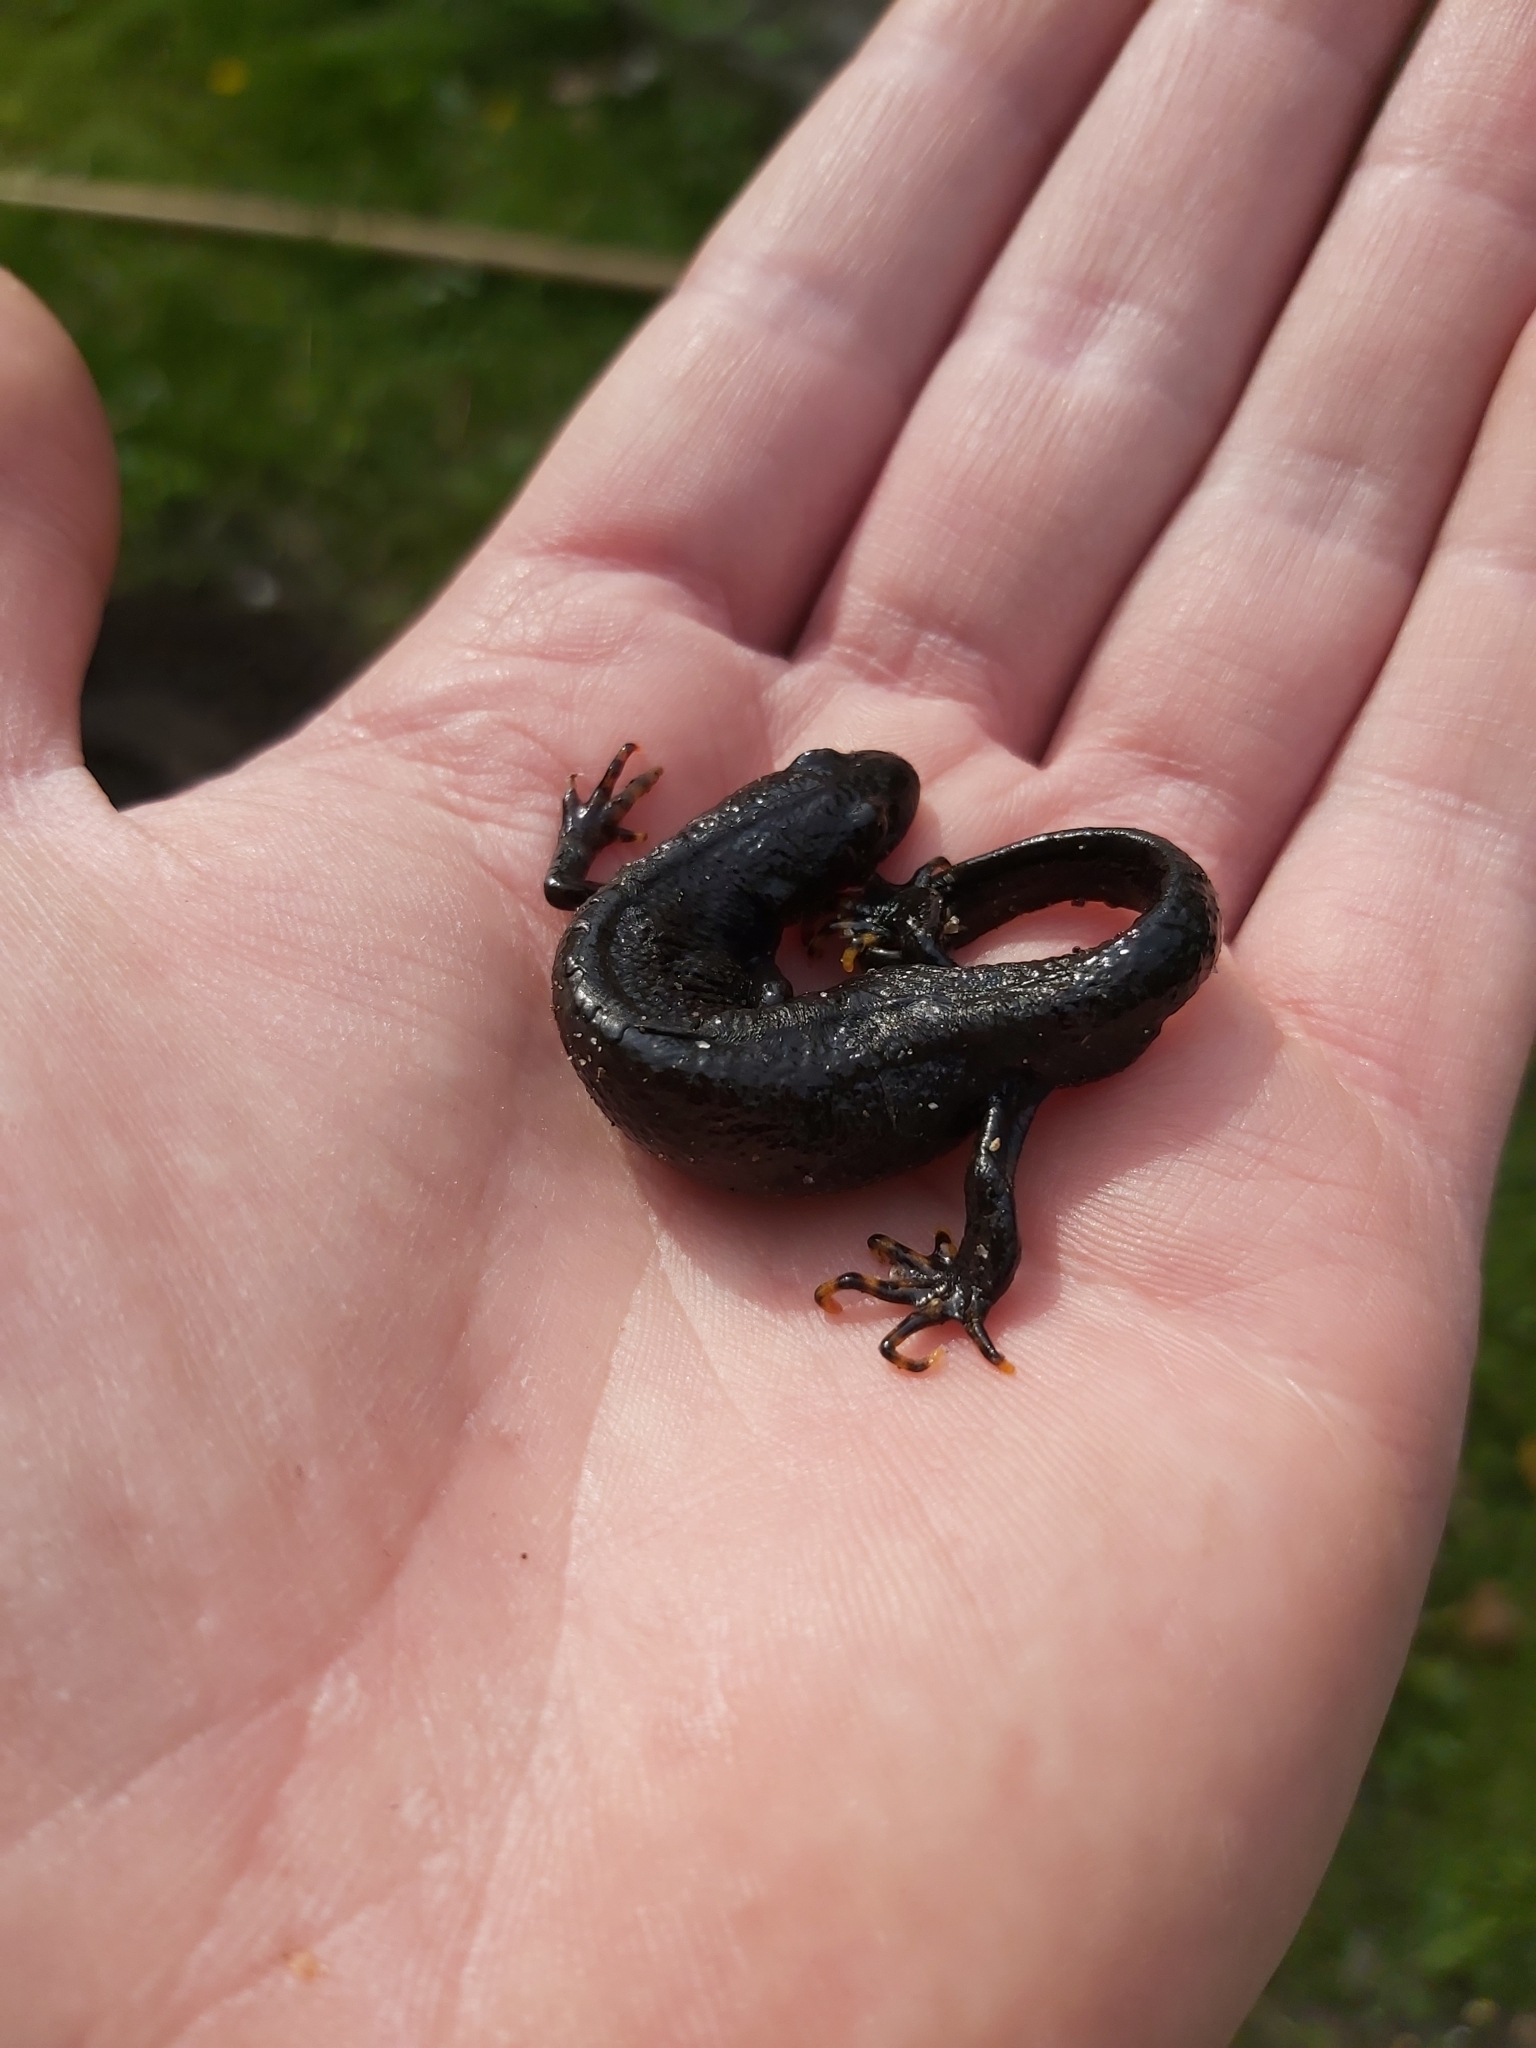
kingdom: Animalia
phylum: Chordata
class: Amphibia
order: Caudata
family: Salamandridae
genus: Triturus
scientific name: Triturus cristatus
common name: Crested newt
